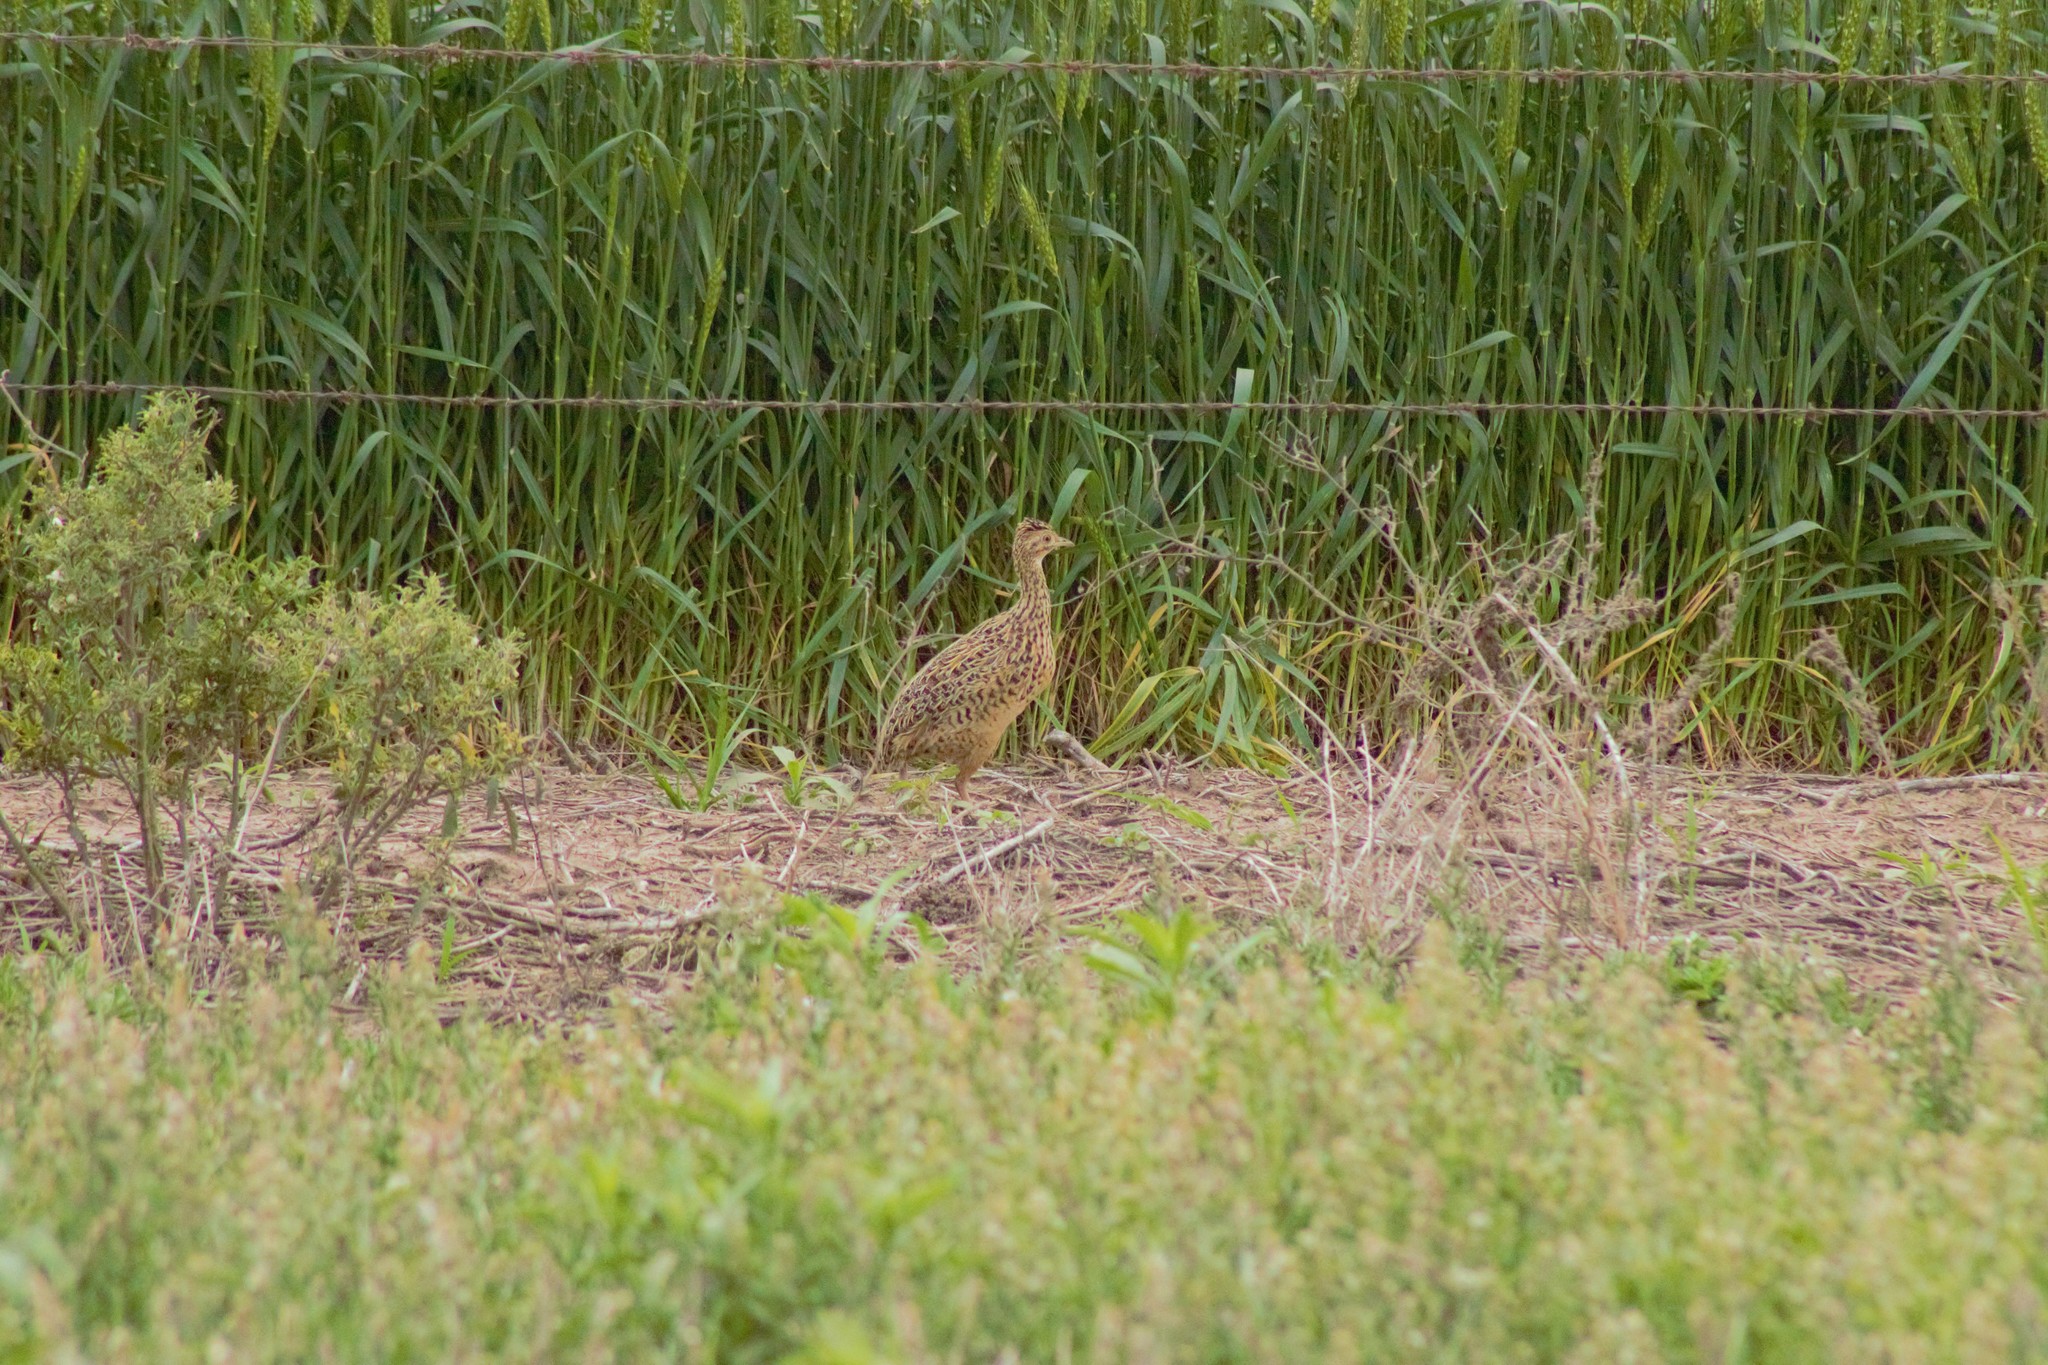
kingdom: Animalia
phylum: Chordata
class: Aves
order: Tinamiformes
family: Tinamidae
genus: Nothura
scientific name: Nothura maculosa
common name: Spotted nothura
